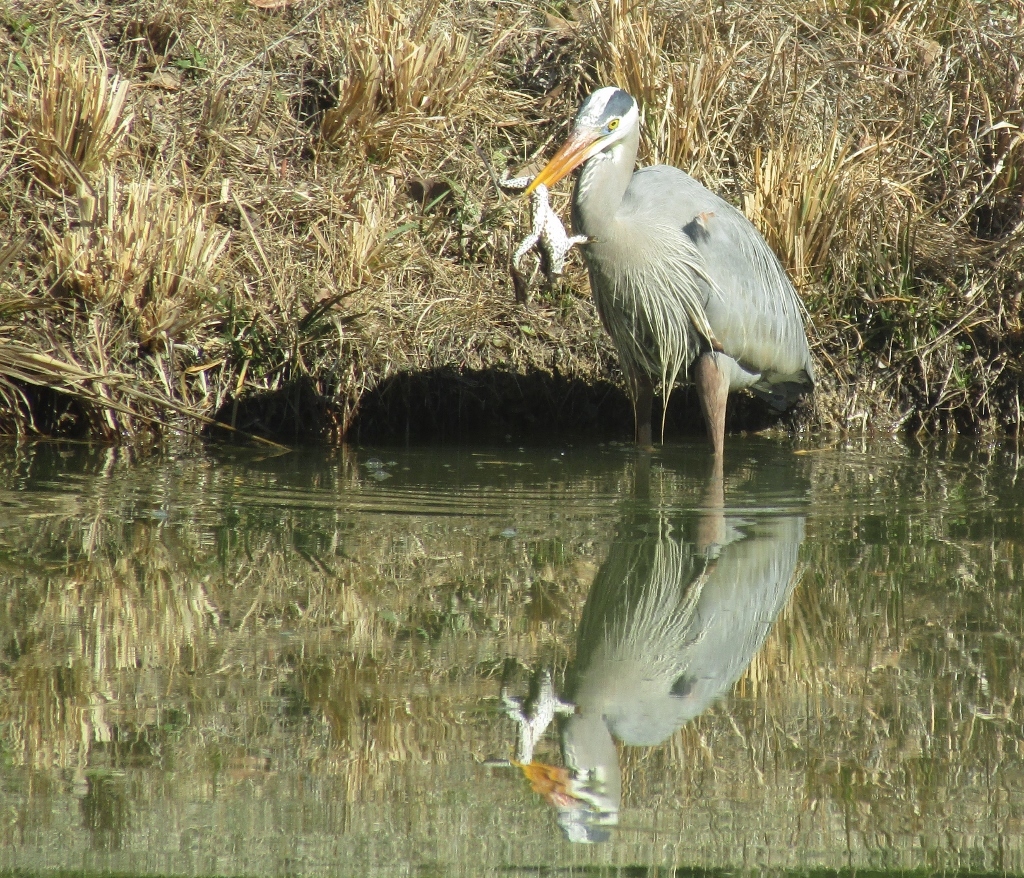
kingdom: Animalia
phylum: Chordata
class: Aves
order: Pelecaniformes
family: Ardeidae
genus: Ardea
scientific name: Ardea herodias
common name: Great blue heron
